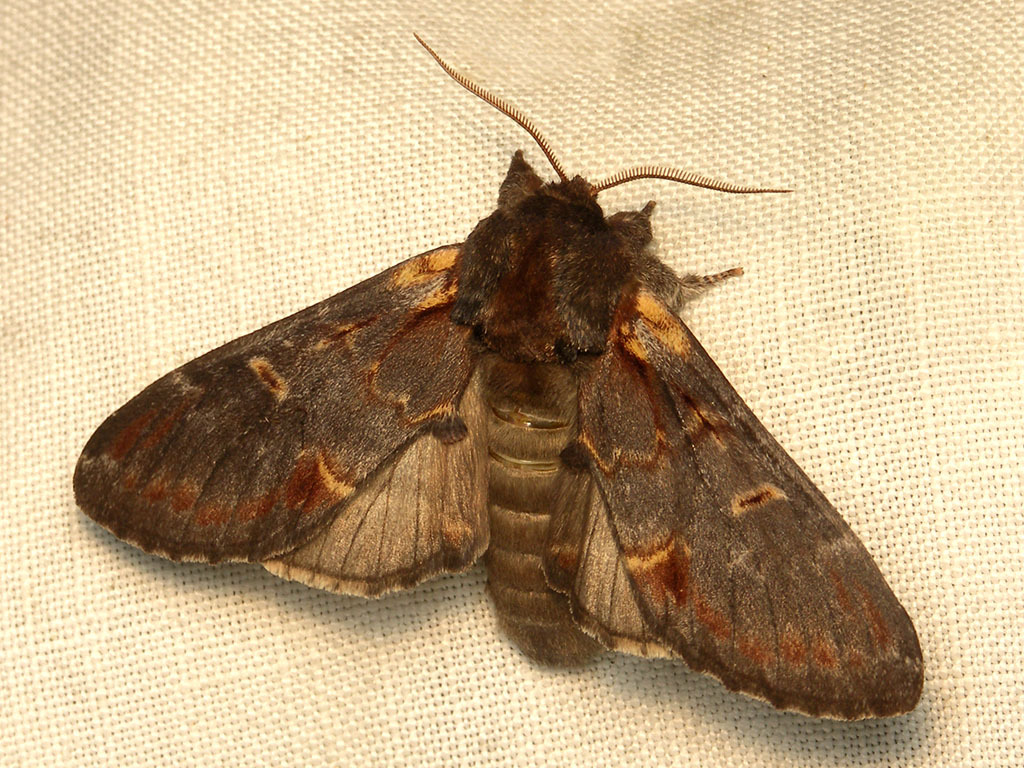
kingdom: Animalia
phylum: Arthropoda
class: Insecta
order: Lepidoptera
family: Notodontidae
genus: Notodonta
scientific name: Notodonta dromedarius
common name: Iron prominent
